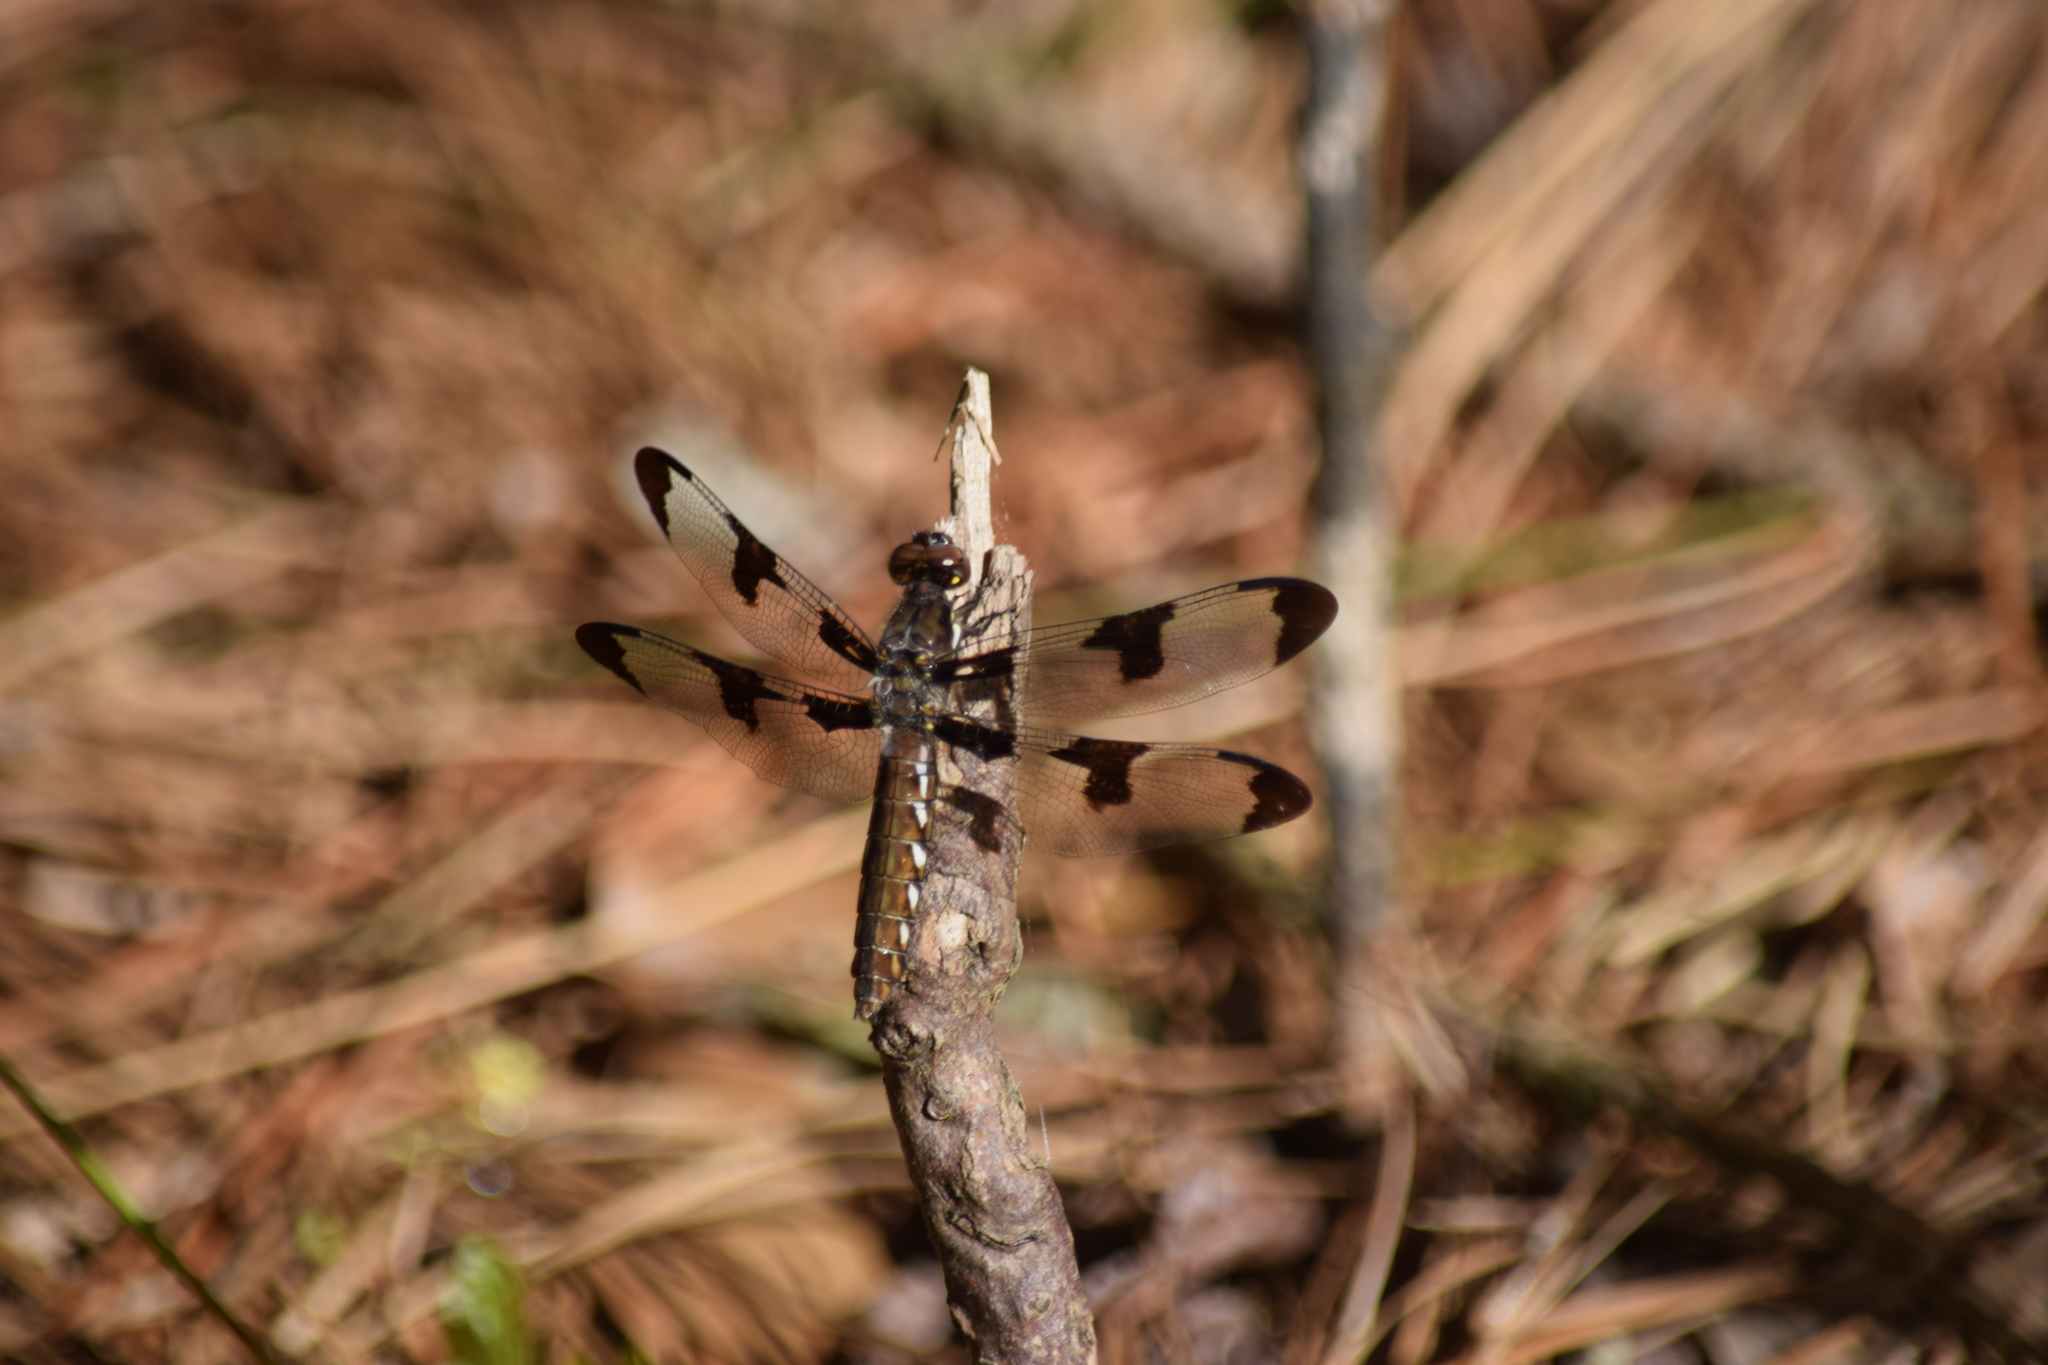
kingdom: Animalia
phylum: Arthropoda
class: Insecta
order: Odonata
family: Libellulidae
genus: Plathemis
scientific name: Plathemis lydia
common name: Common whitetail
